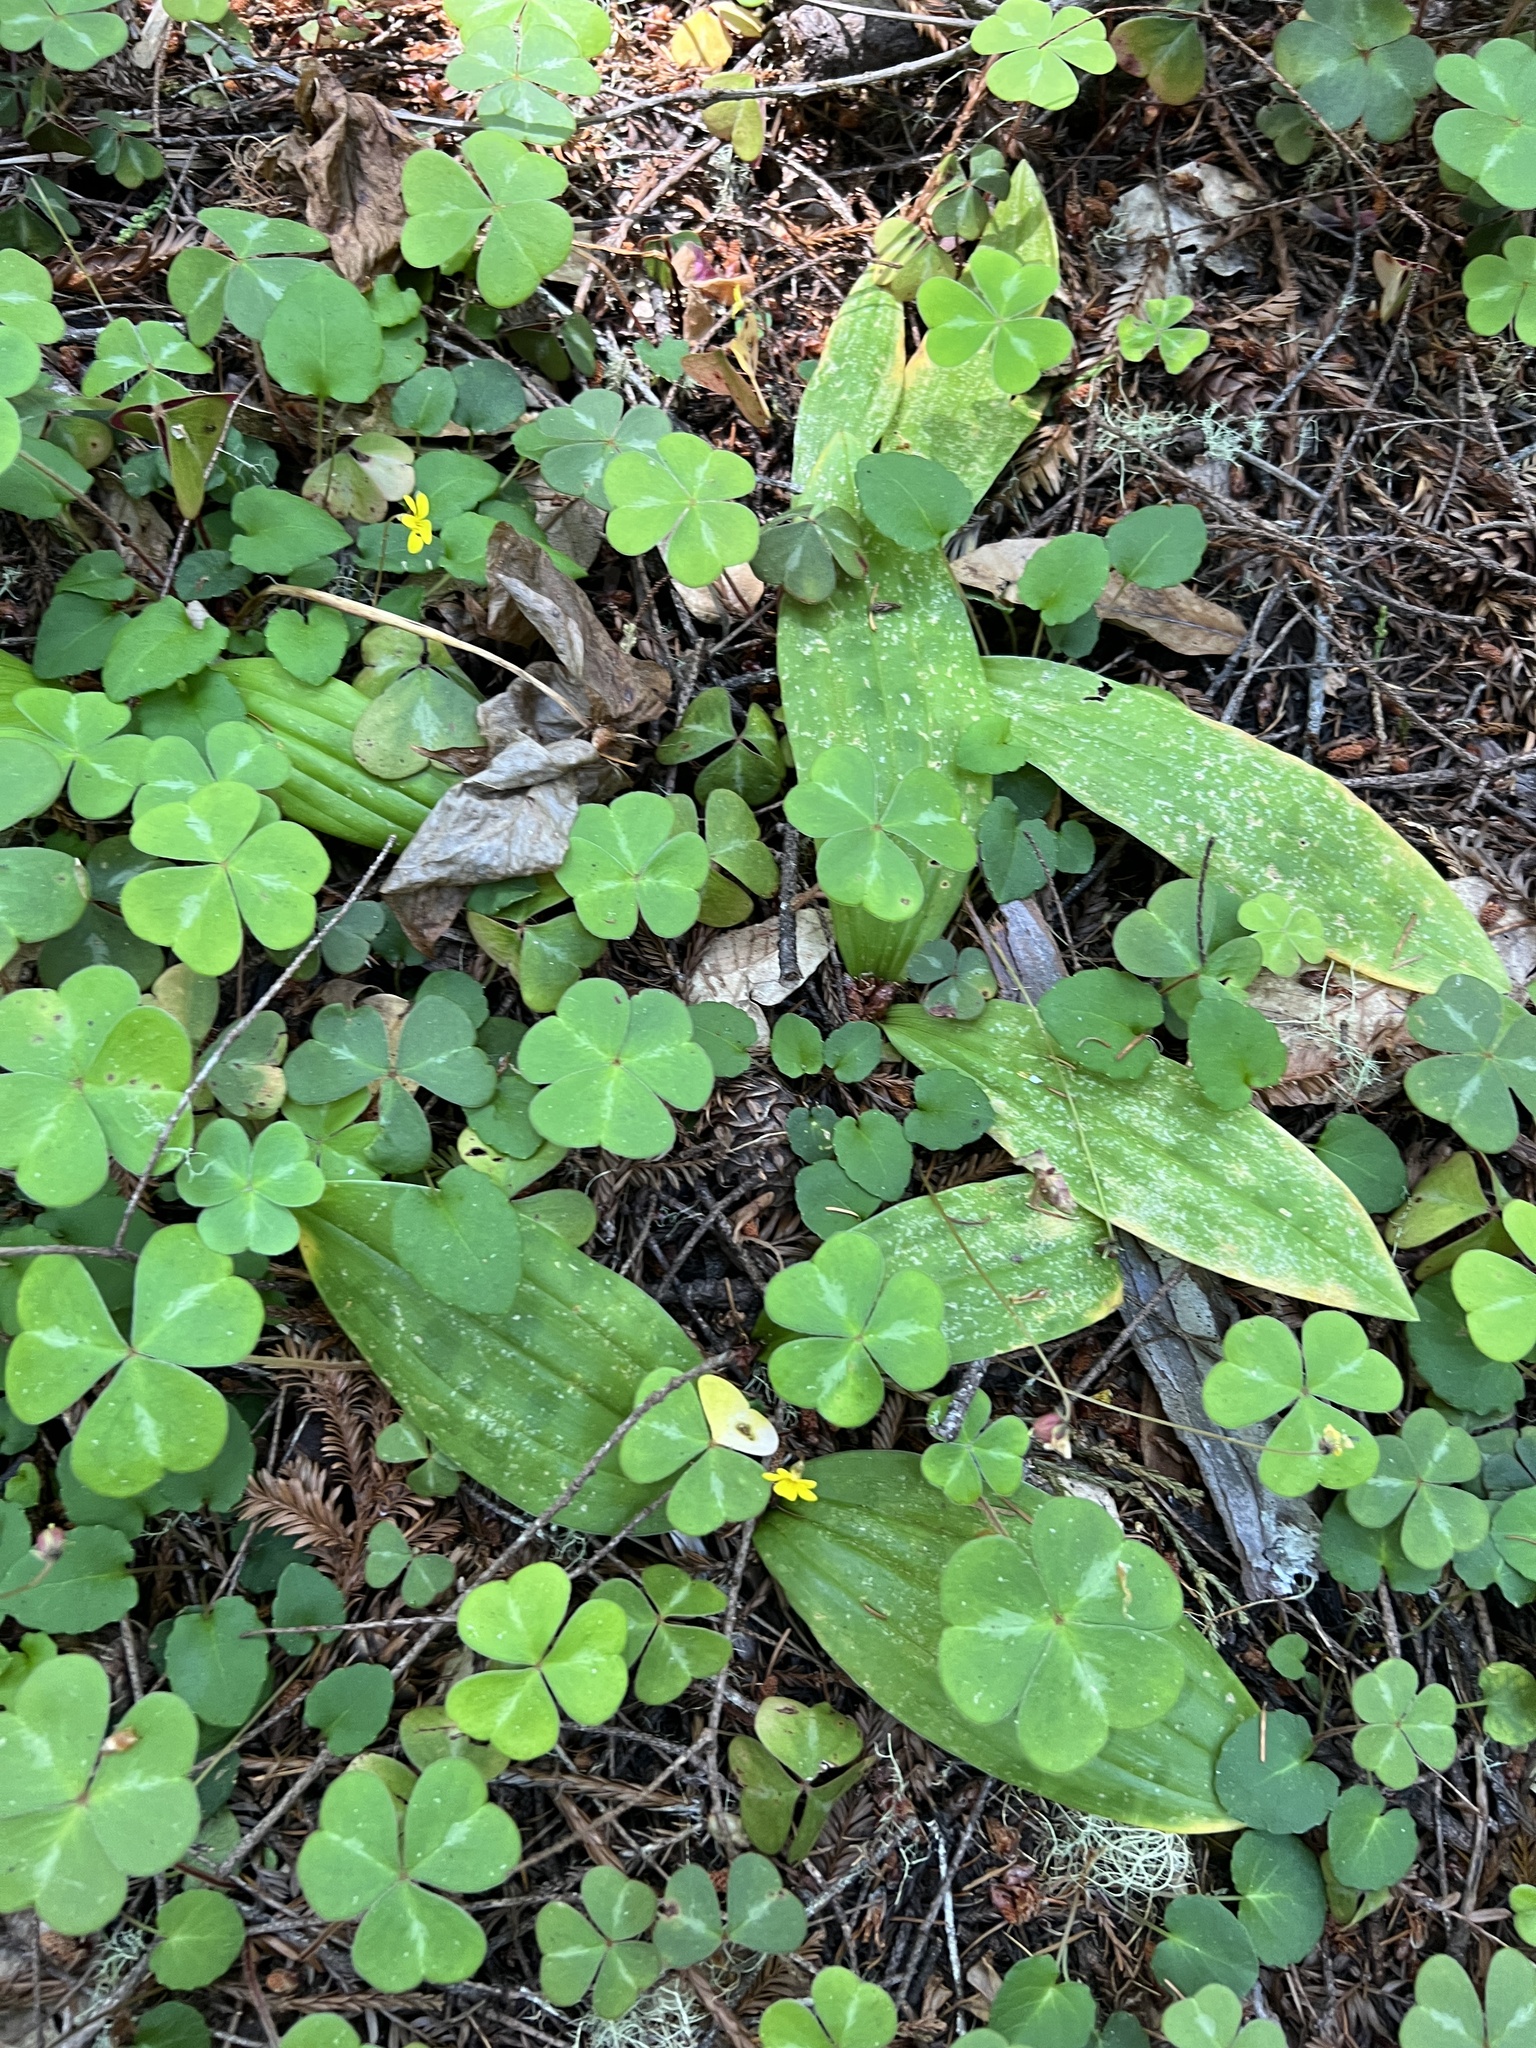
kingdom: Plantae
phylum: Tracheophyta
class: Liliopsida
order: Liliales
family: Liliaceae
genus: Scoliopus
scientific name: Scoliopus bigelovii
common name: Foetid adder's-tongue
